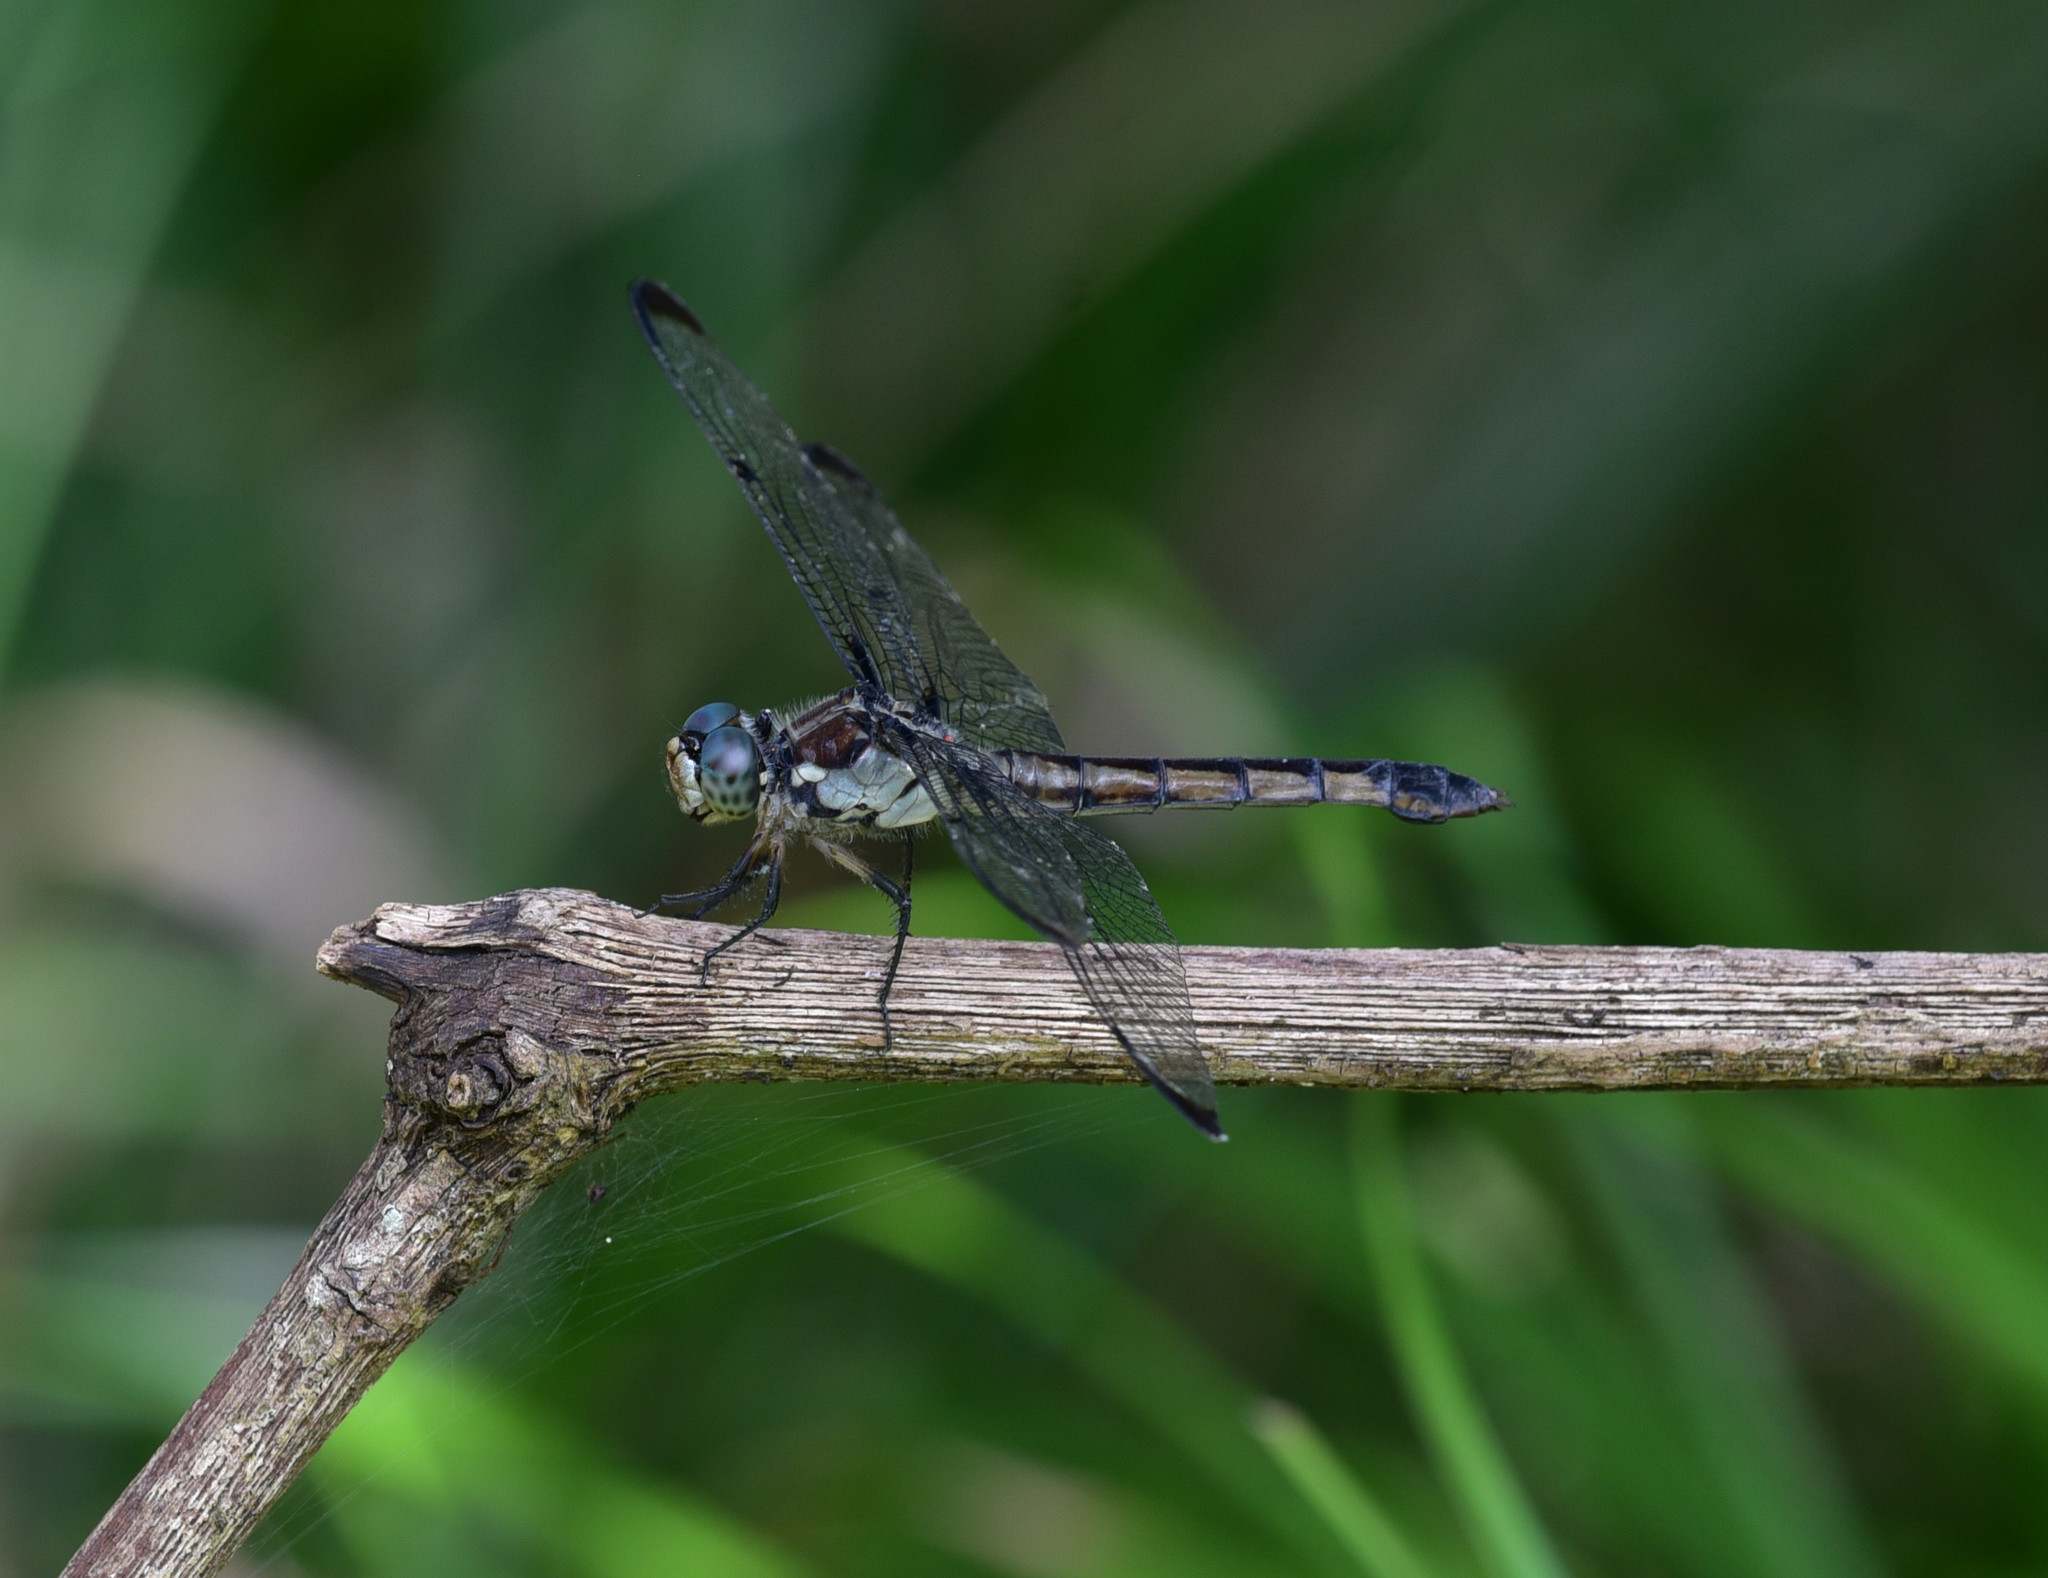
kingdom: Animalia
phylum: Arthropoda
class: Insecta
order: Odonata
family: Libellulidae
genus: Libellula
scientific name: Libellula vibrans
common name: Great blue skimmer
